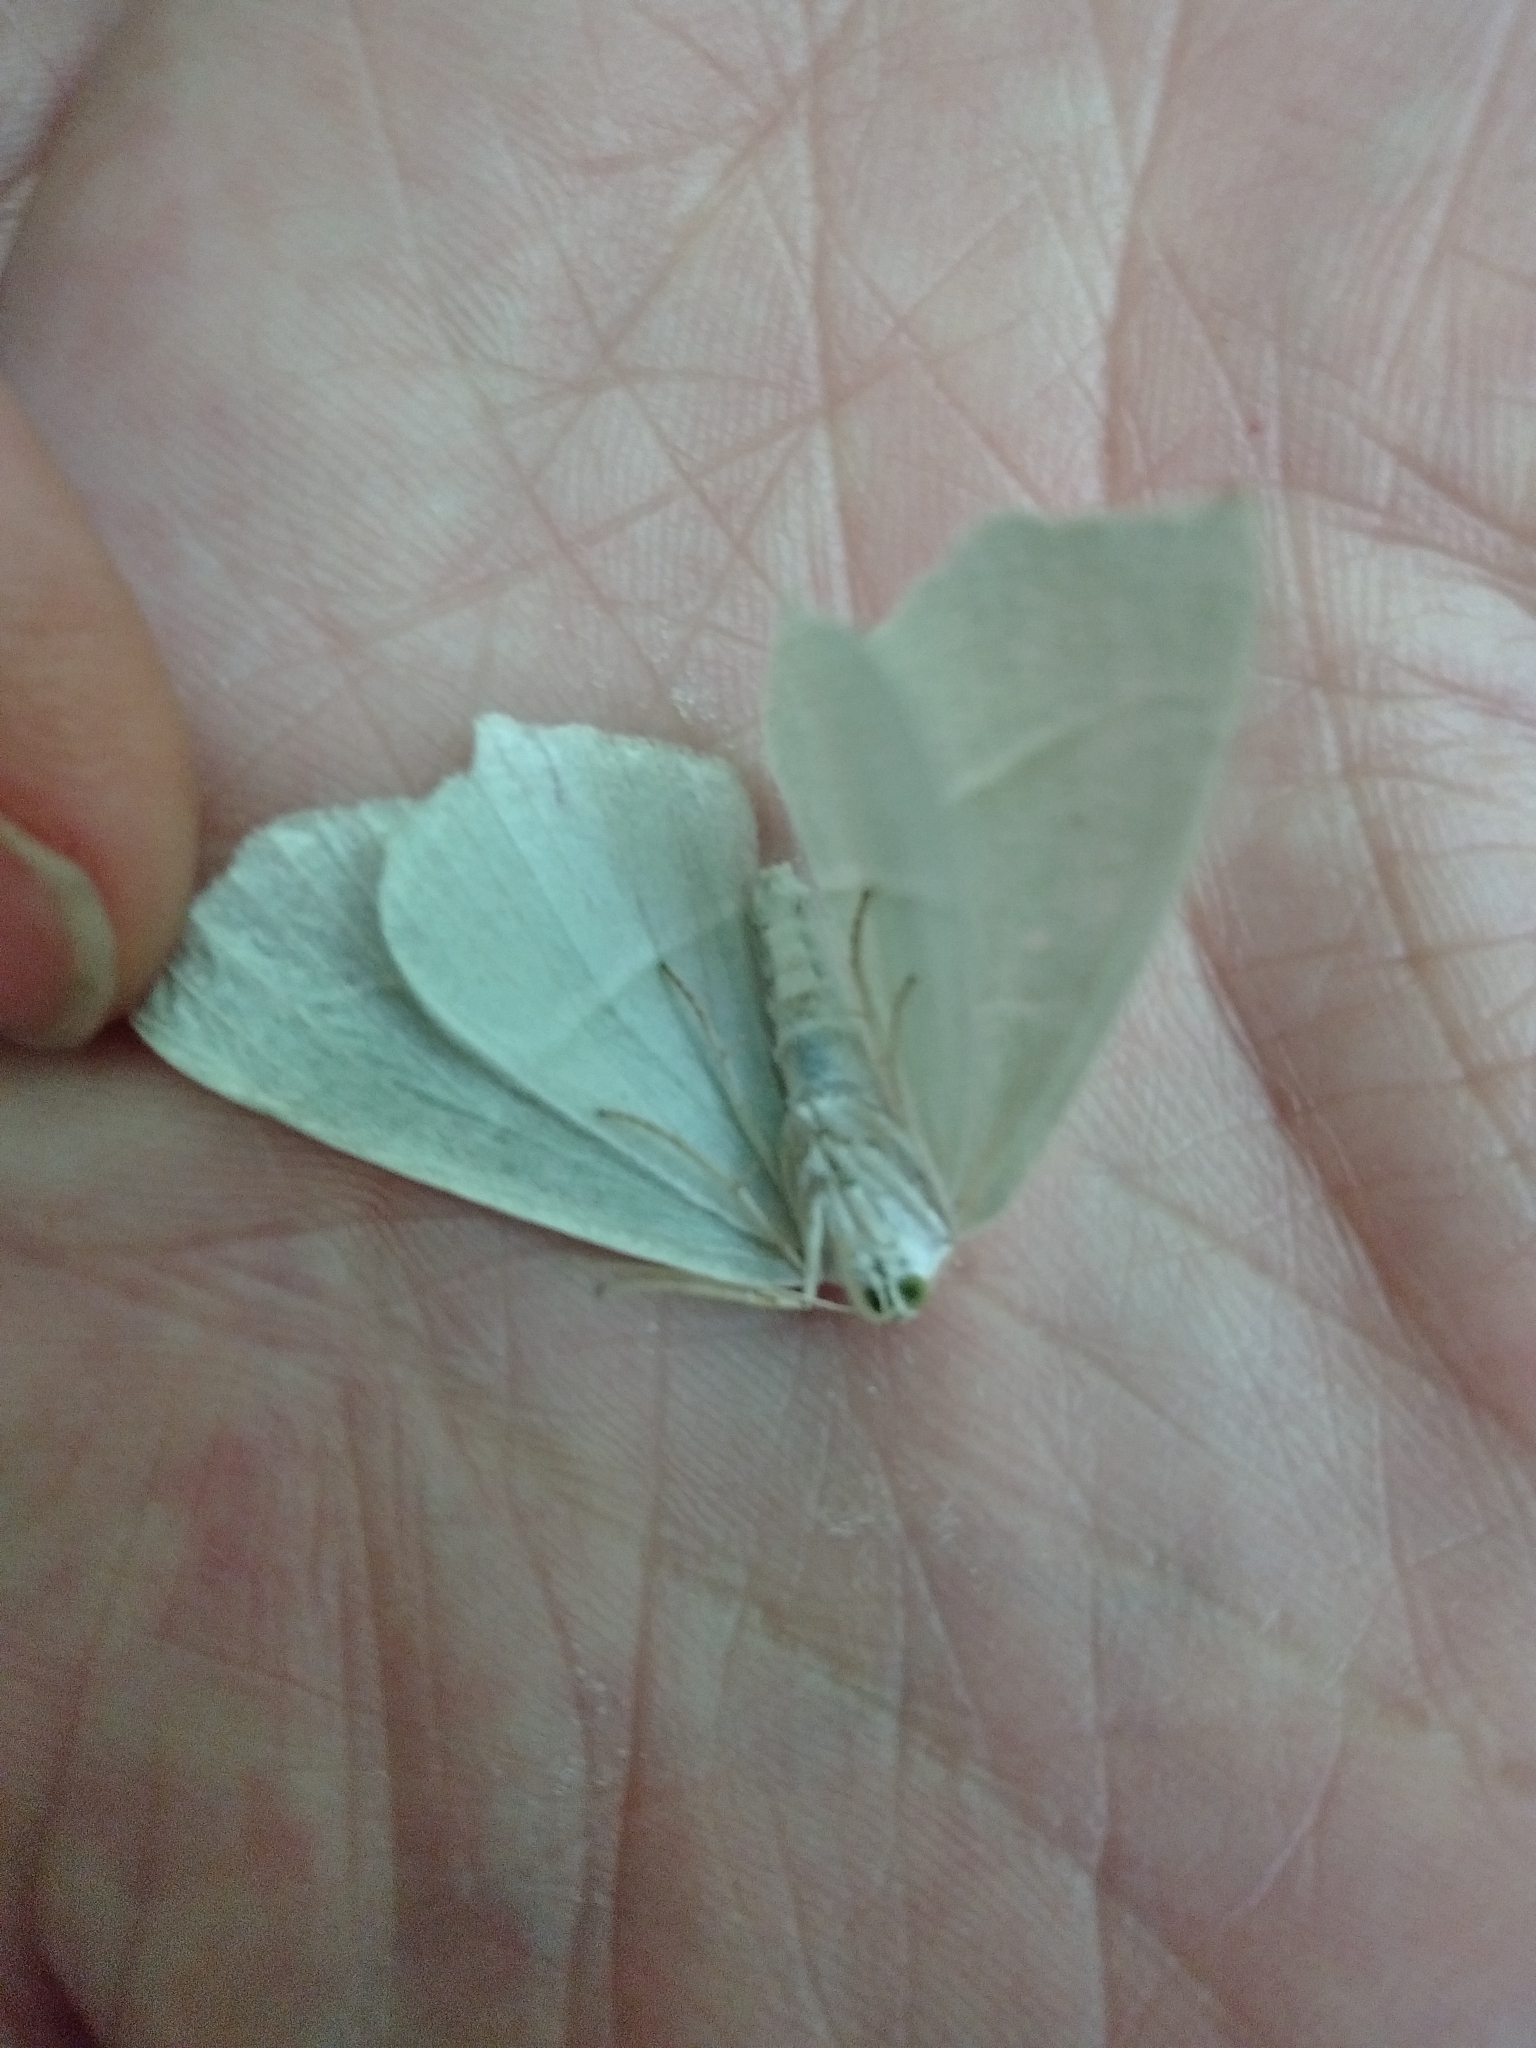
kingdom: Animalia
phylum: Arthropoda
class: Insecta
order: Lepidoptera
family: Geometridae
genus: Campaea
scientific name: Campaea margaritaria
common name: Light emerald
